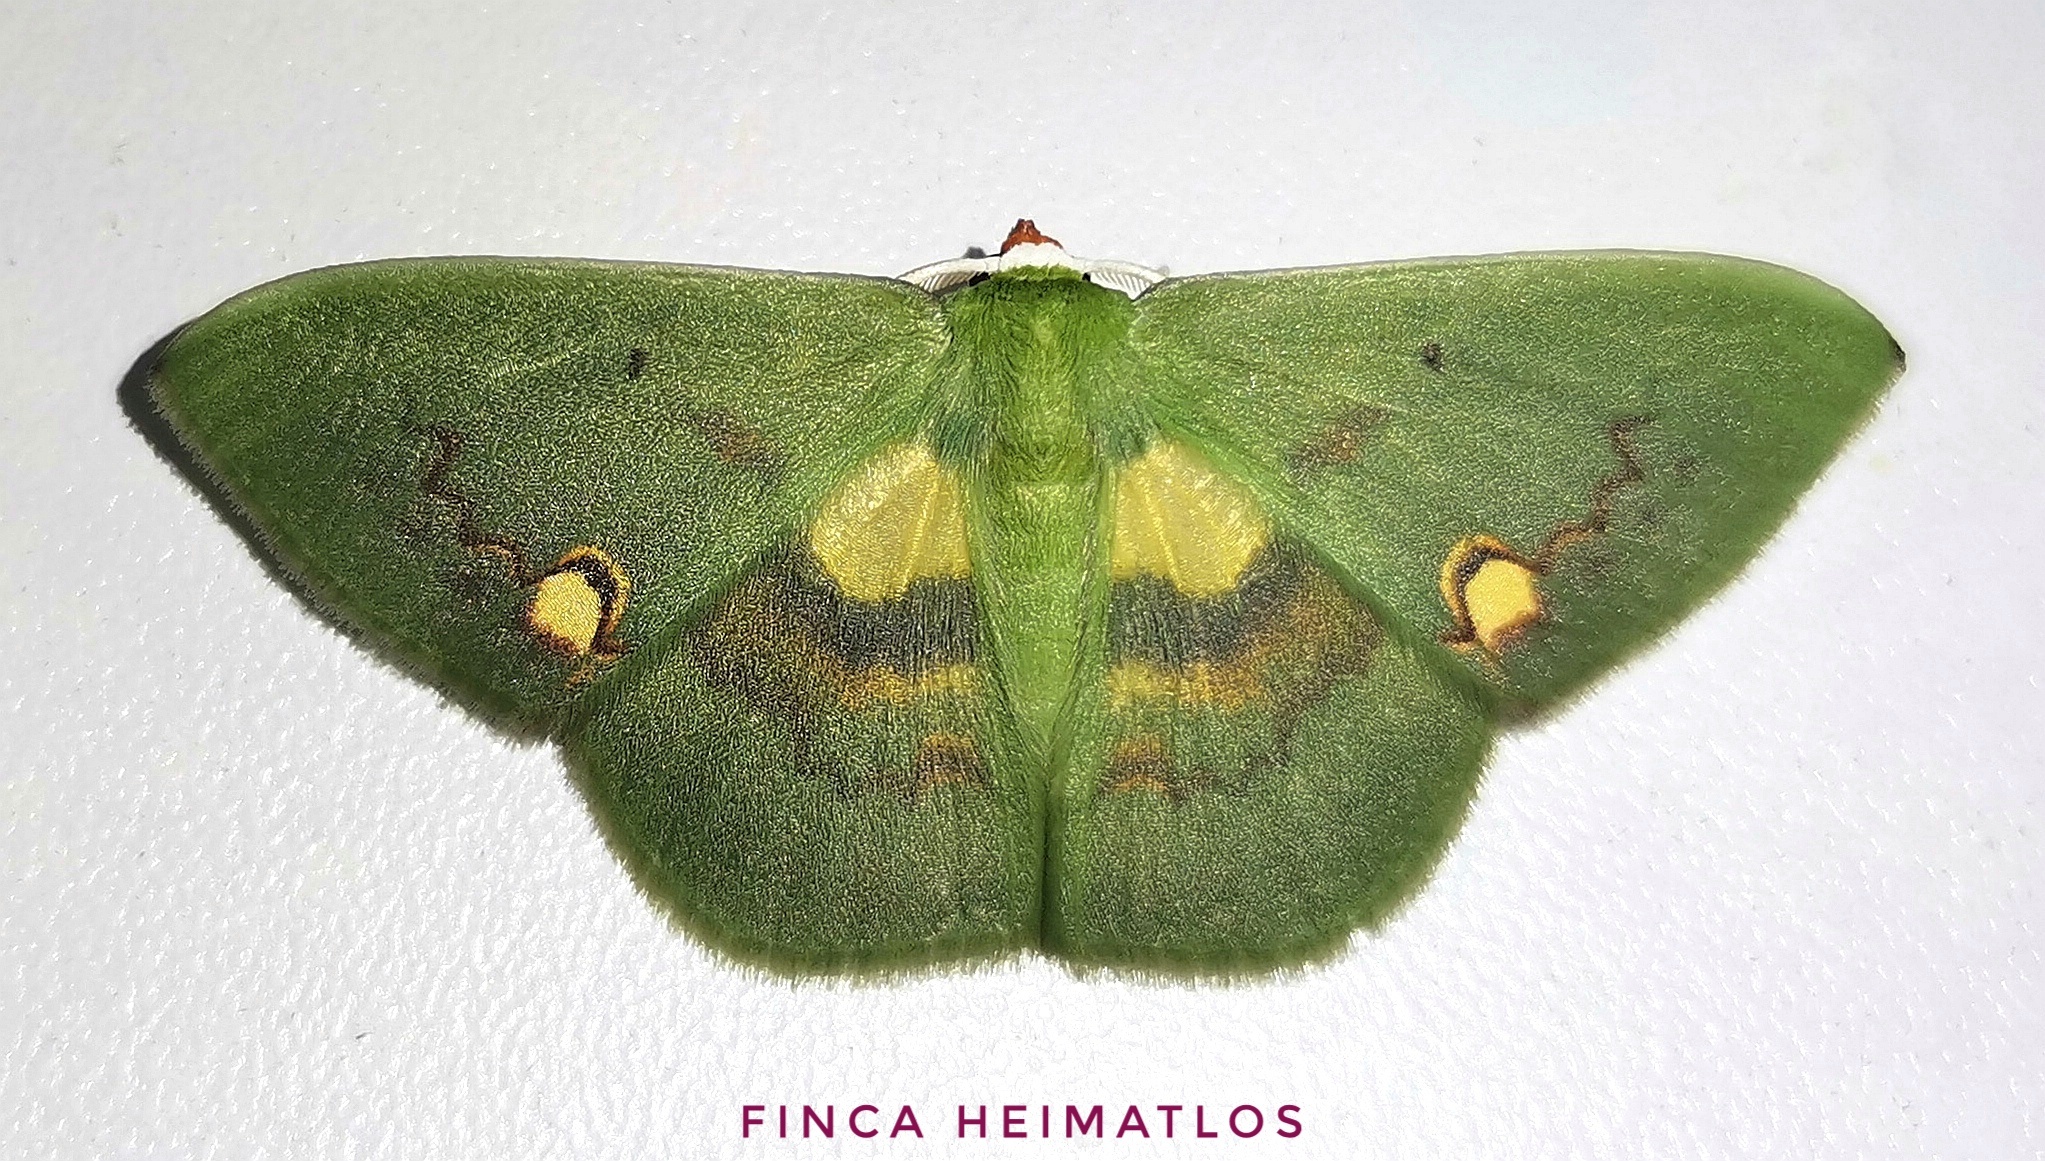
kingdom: Animalia
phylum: Arthropoda
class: Insecta
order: Lepidoptera
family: Geometridae
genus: Rhodochlora
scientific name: Rhodochlora brunneipalpis
